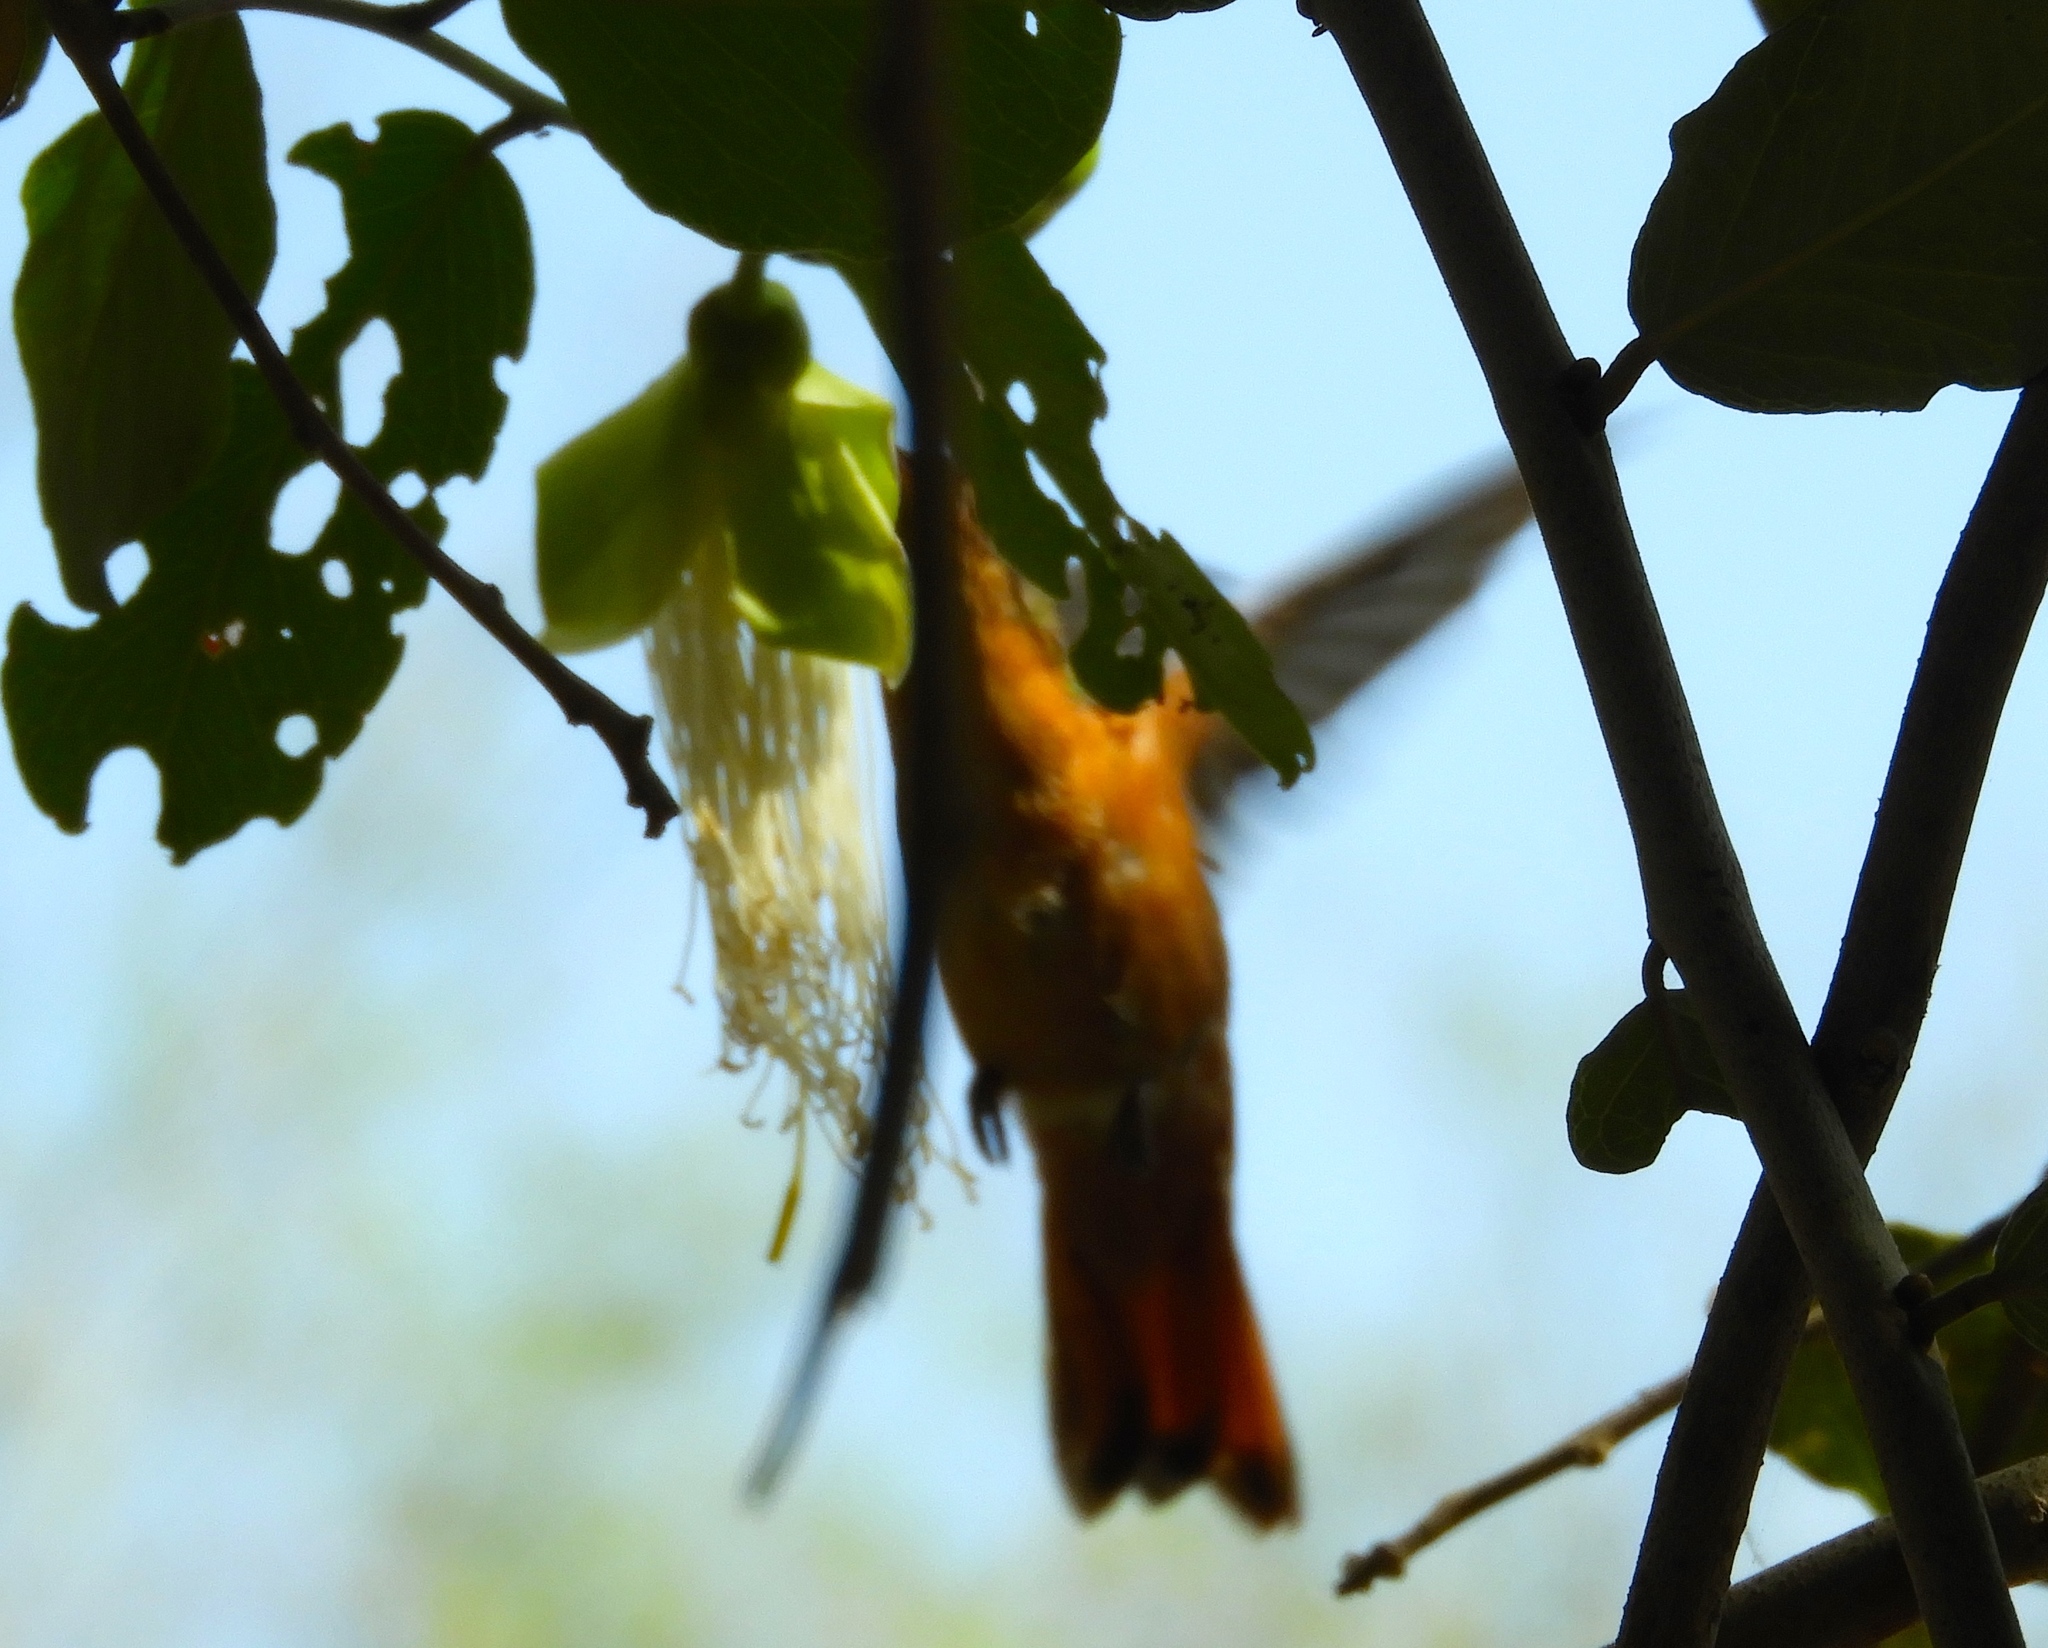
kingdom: Animalia
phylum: Chordata
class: Aves
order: Apodiformes
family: Trochilidae
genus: Amazilia
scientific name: Amazilia rutila
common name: Cinnamon hummingbird
